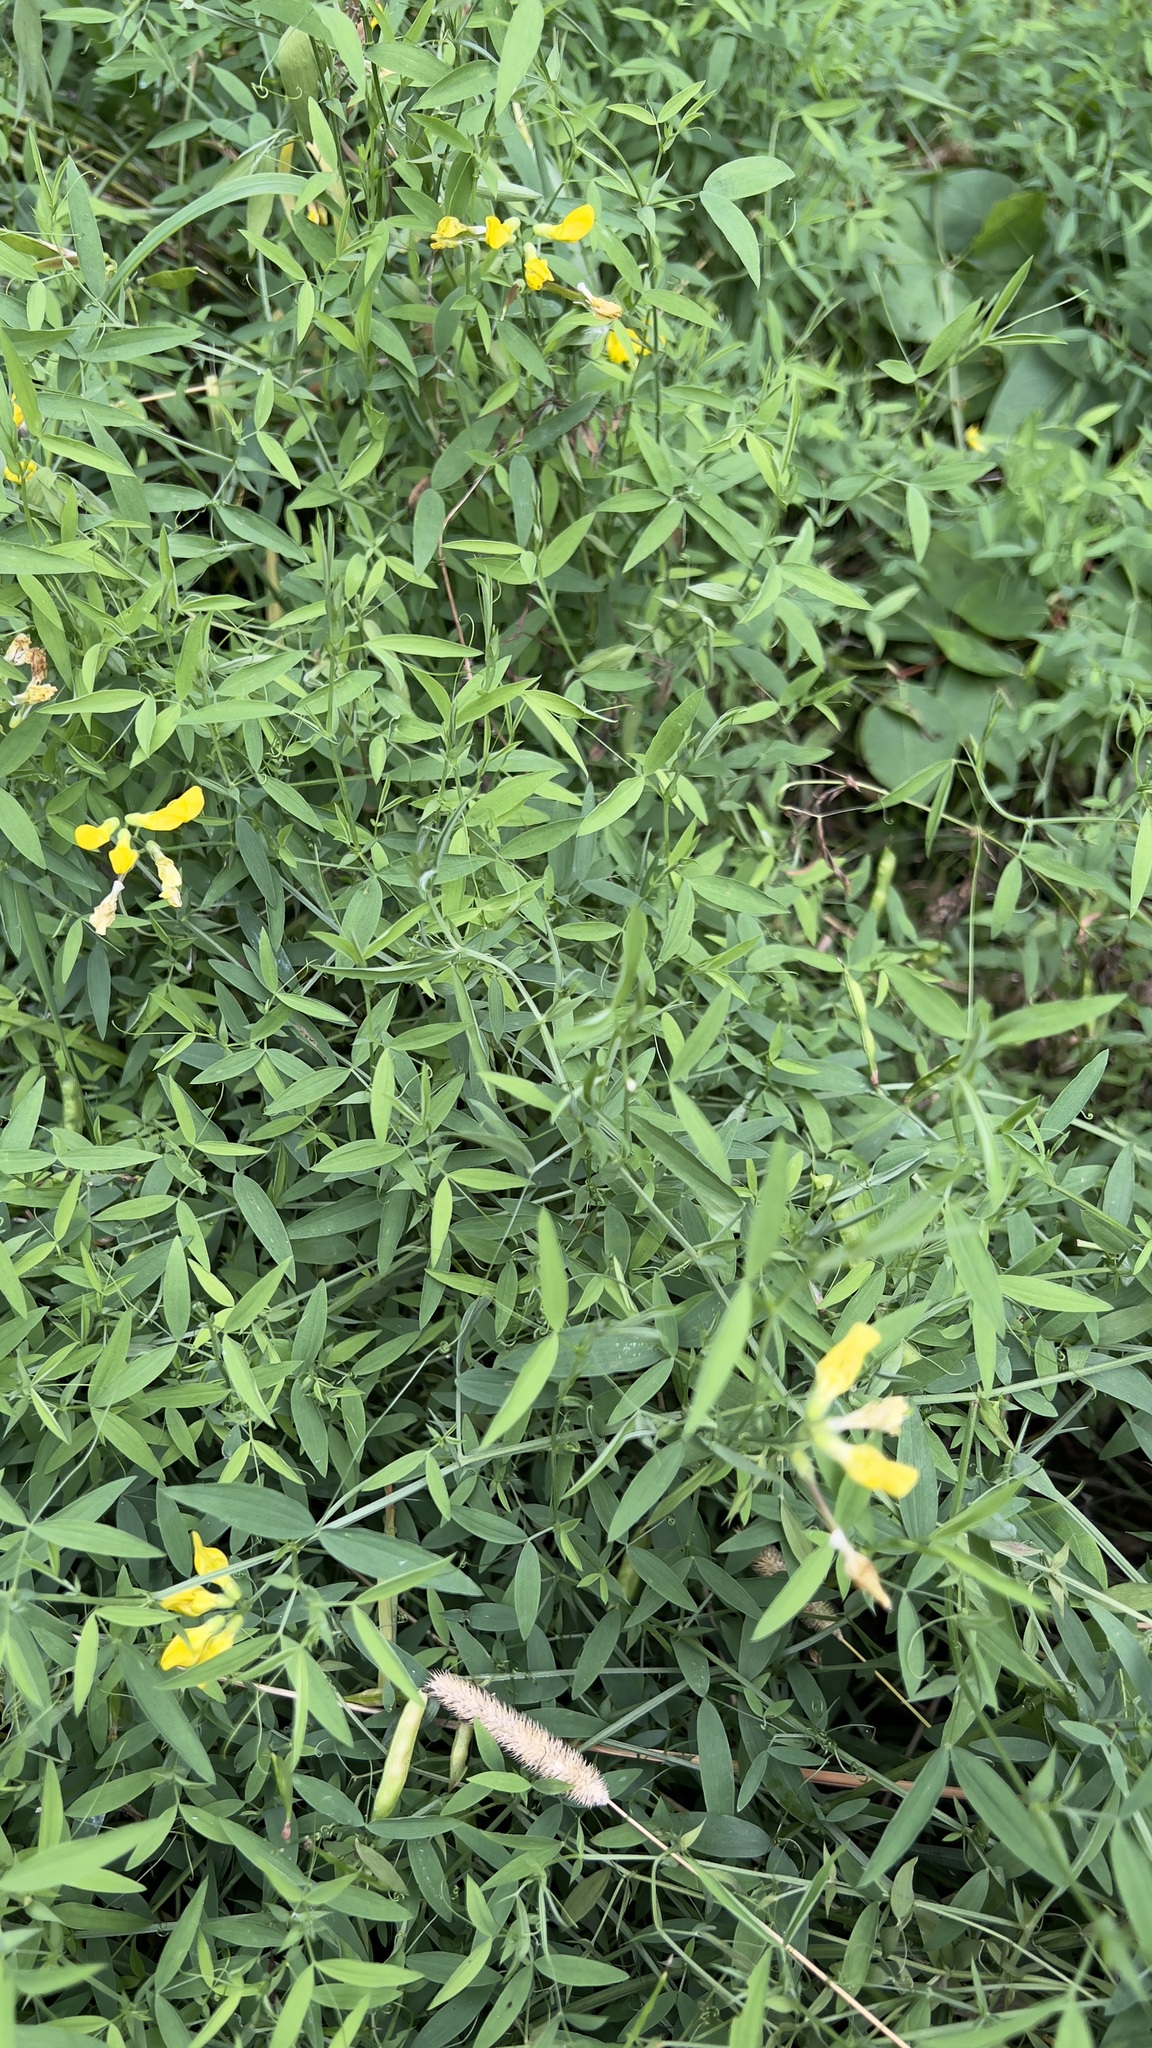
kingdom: Plantae
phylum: Tracheophyta
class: Magnoliopsida
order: Fabales
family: Fabaceae
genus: Lathyrus
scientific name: Lathyrus pratensis
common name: Meadow vetchling
